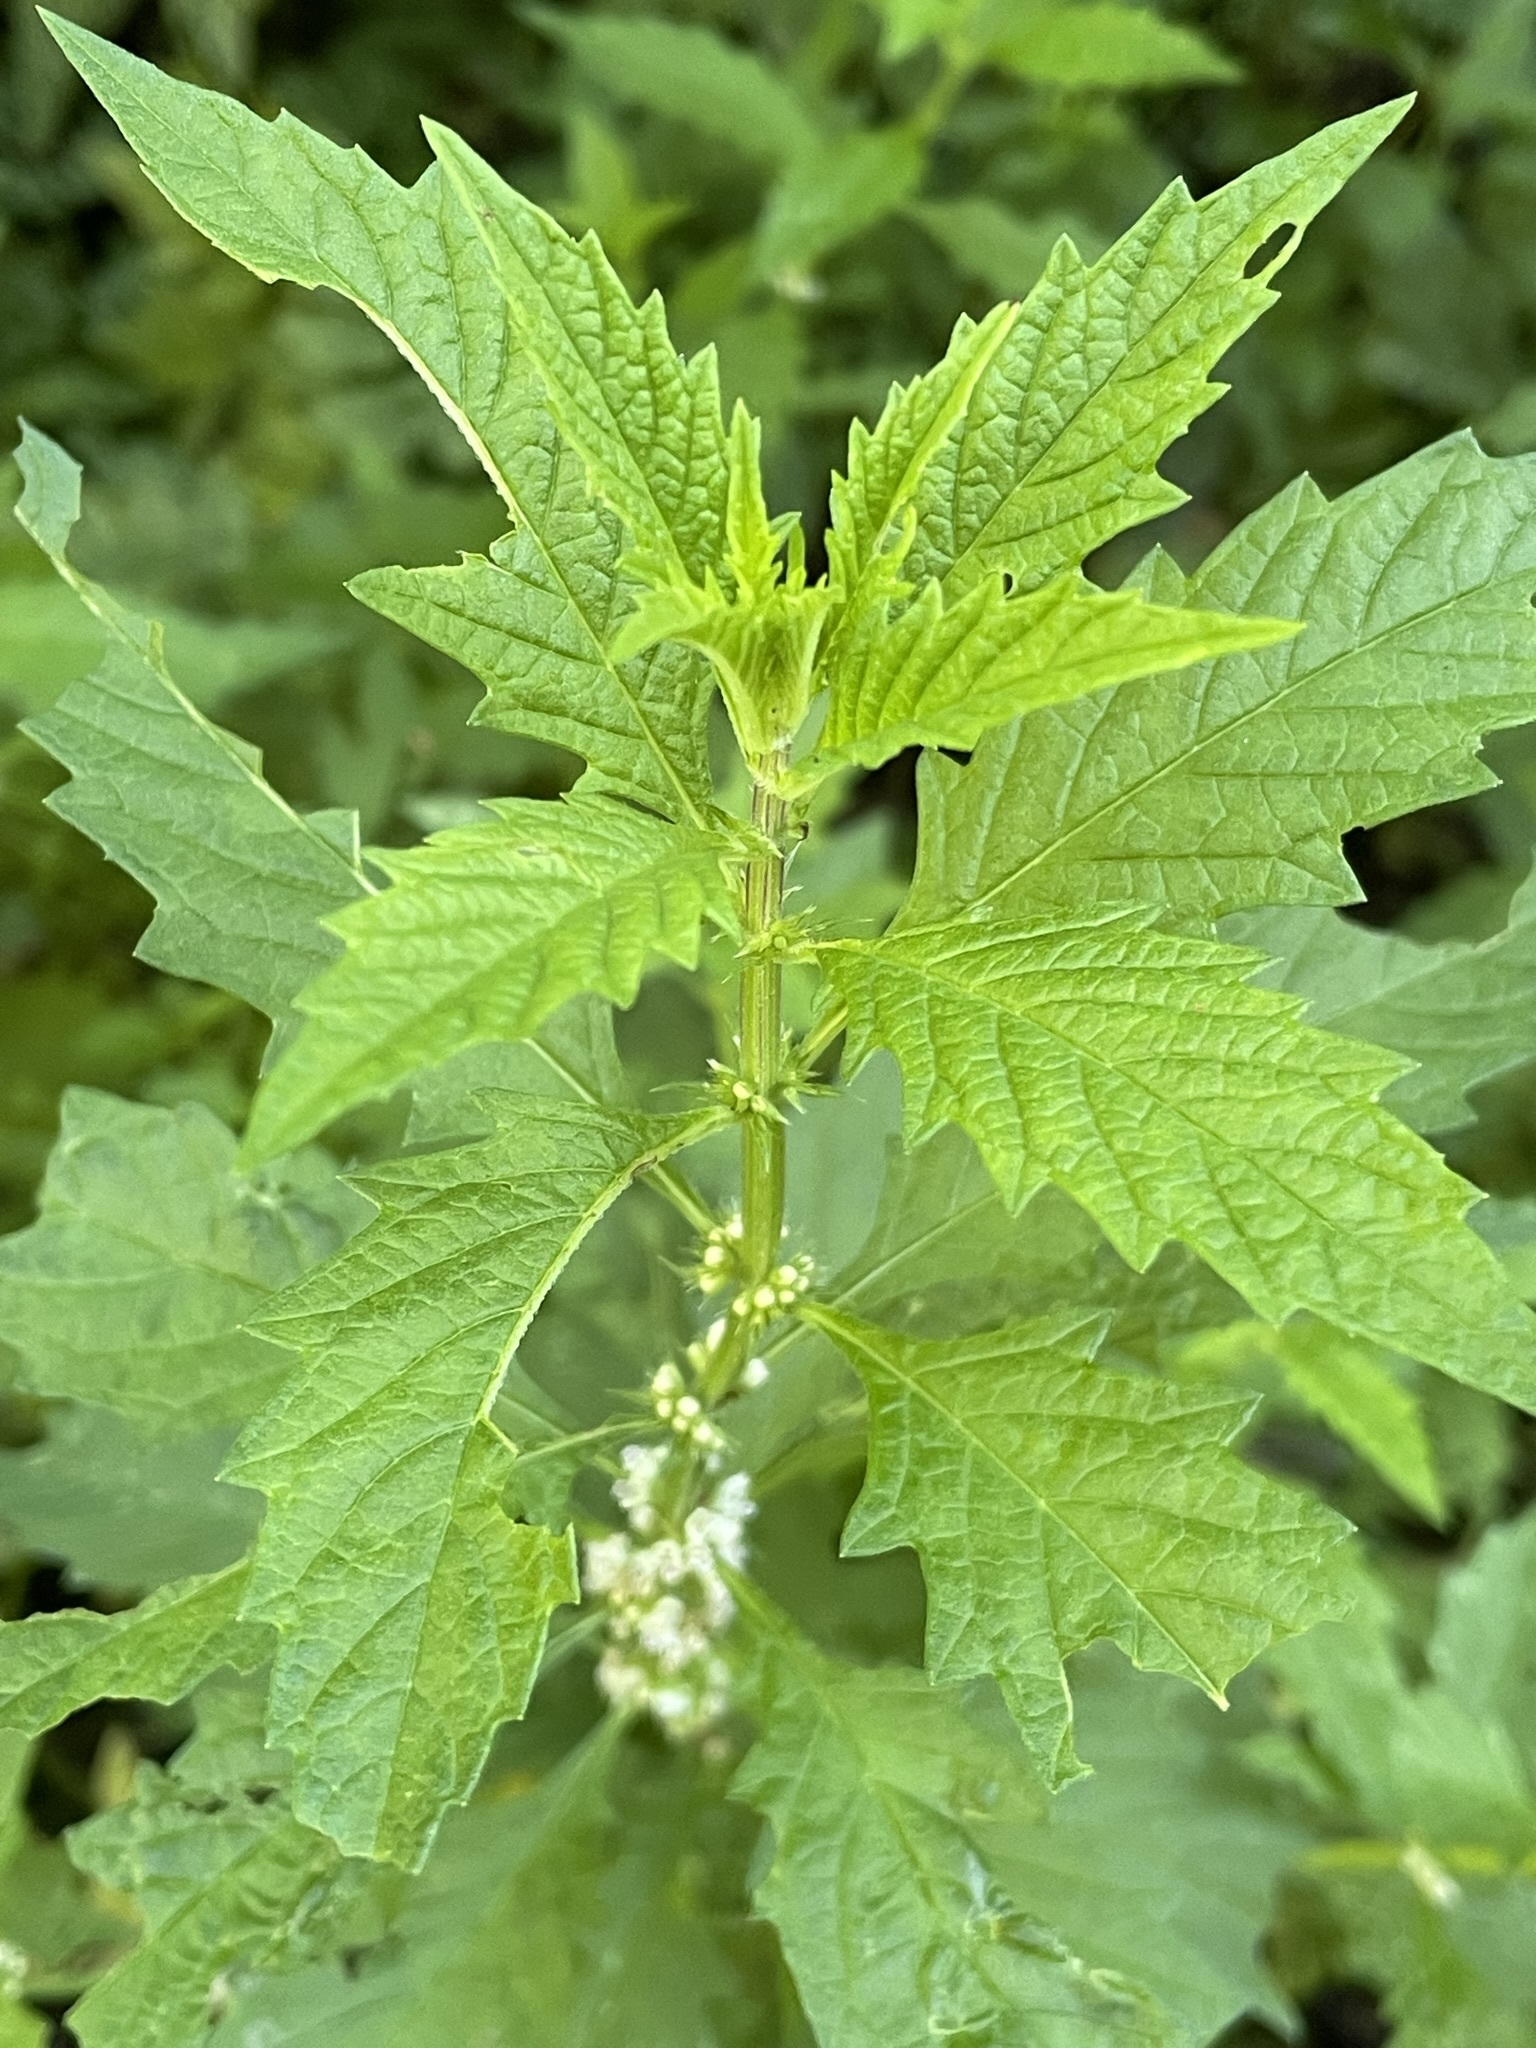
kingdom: Plantae
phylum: Tracheophyta
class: Magnoliopsida
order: Lamiales
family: Lamiaceae
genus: Lycopus
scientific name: Lycopus europaeus
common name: European bugleweed
